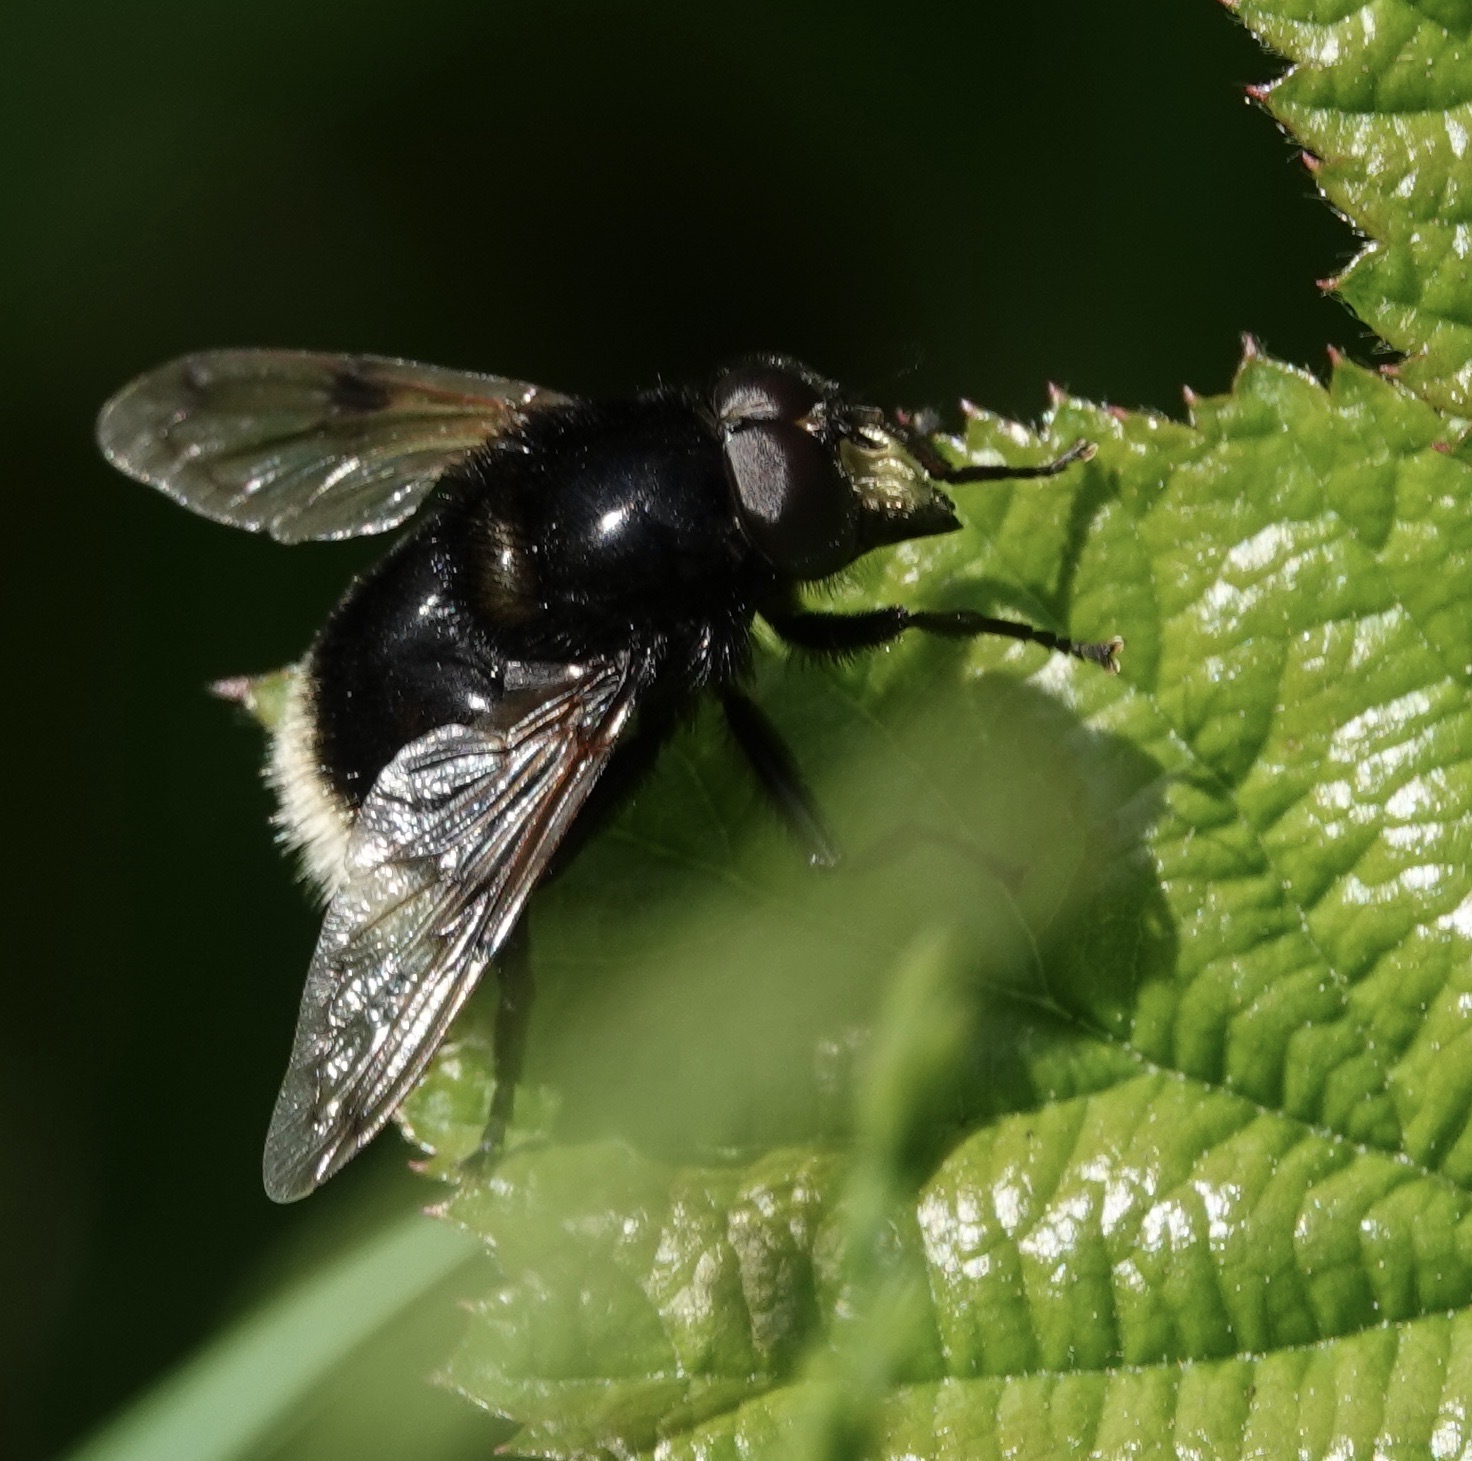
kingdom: Animalia
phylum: Arthropoda
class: Insecta
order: Diptera
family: Syrphidae
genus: Volucella
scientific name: Volucella bombylans
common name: Bumble bee hover fly
